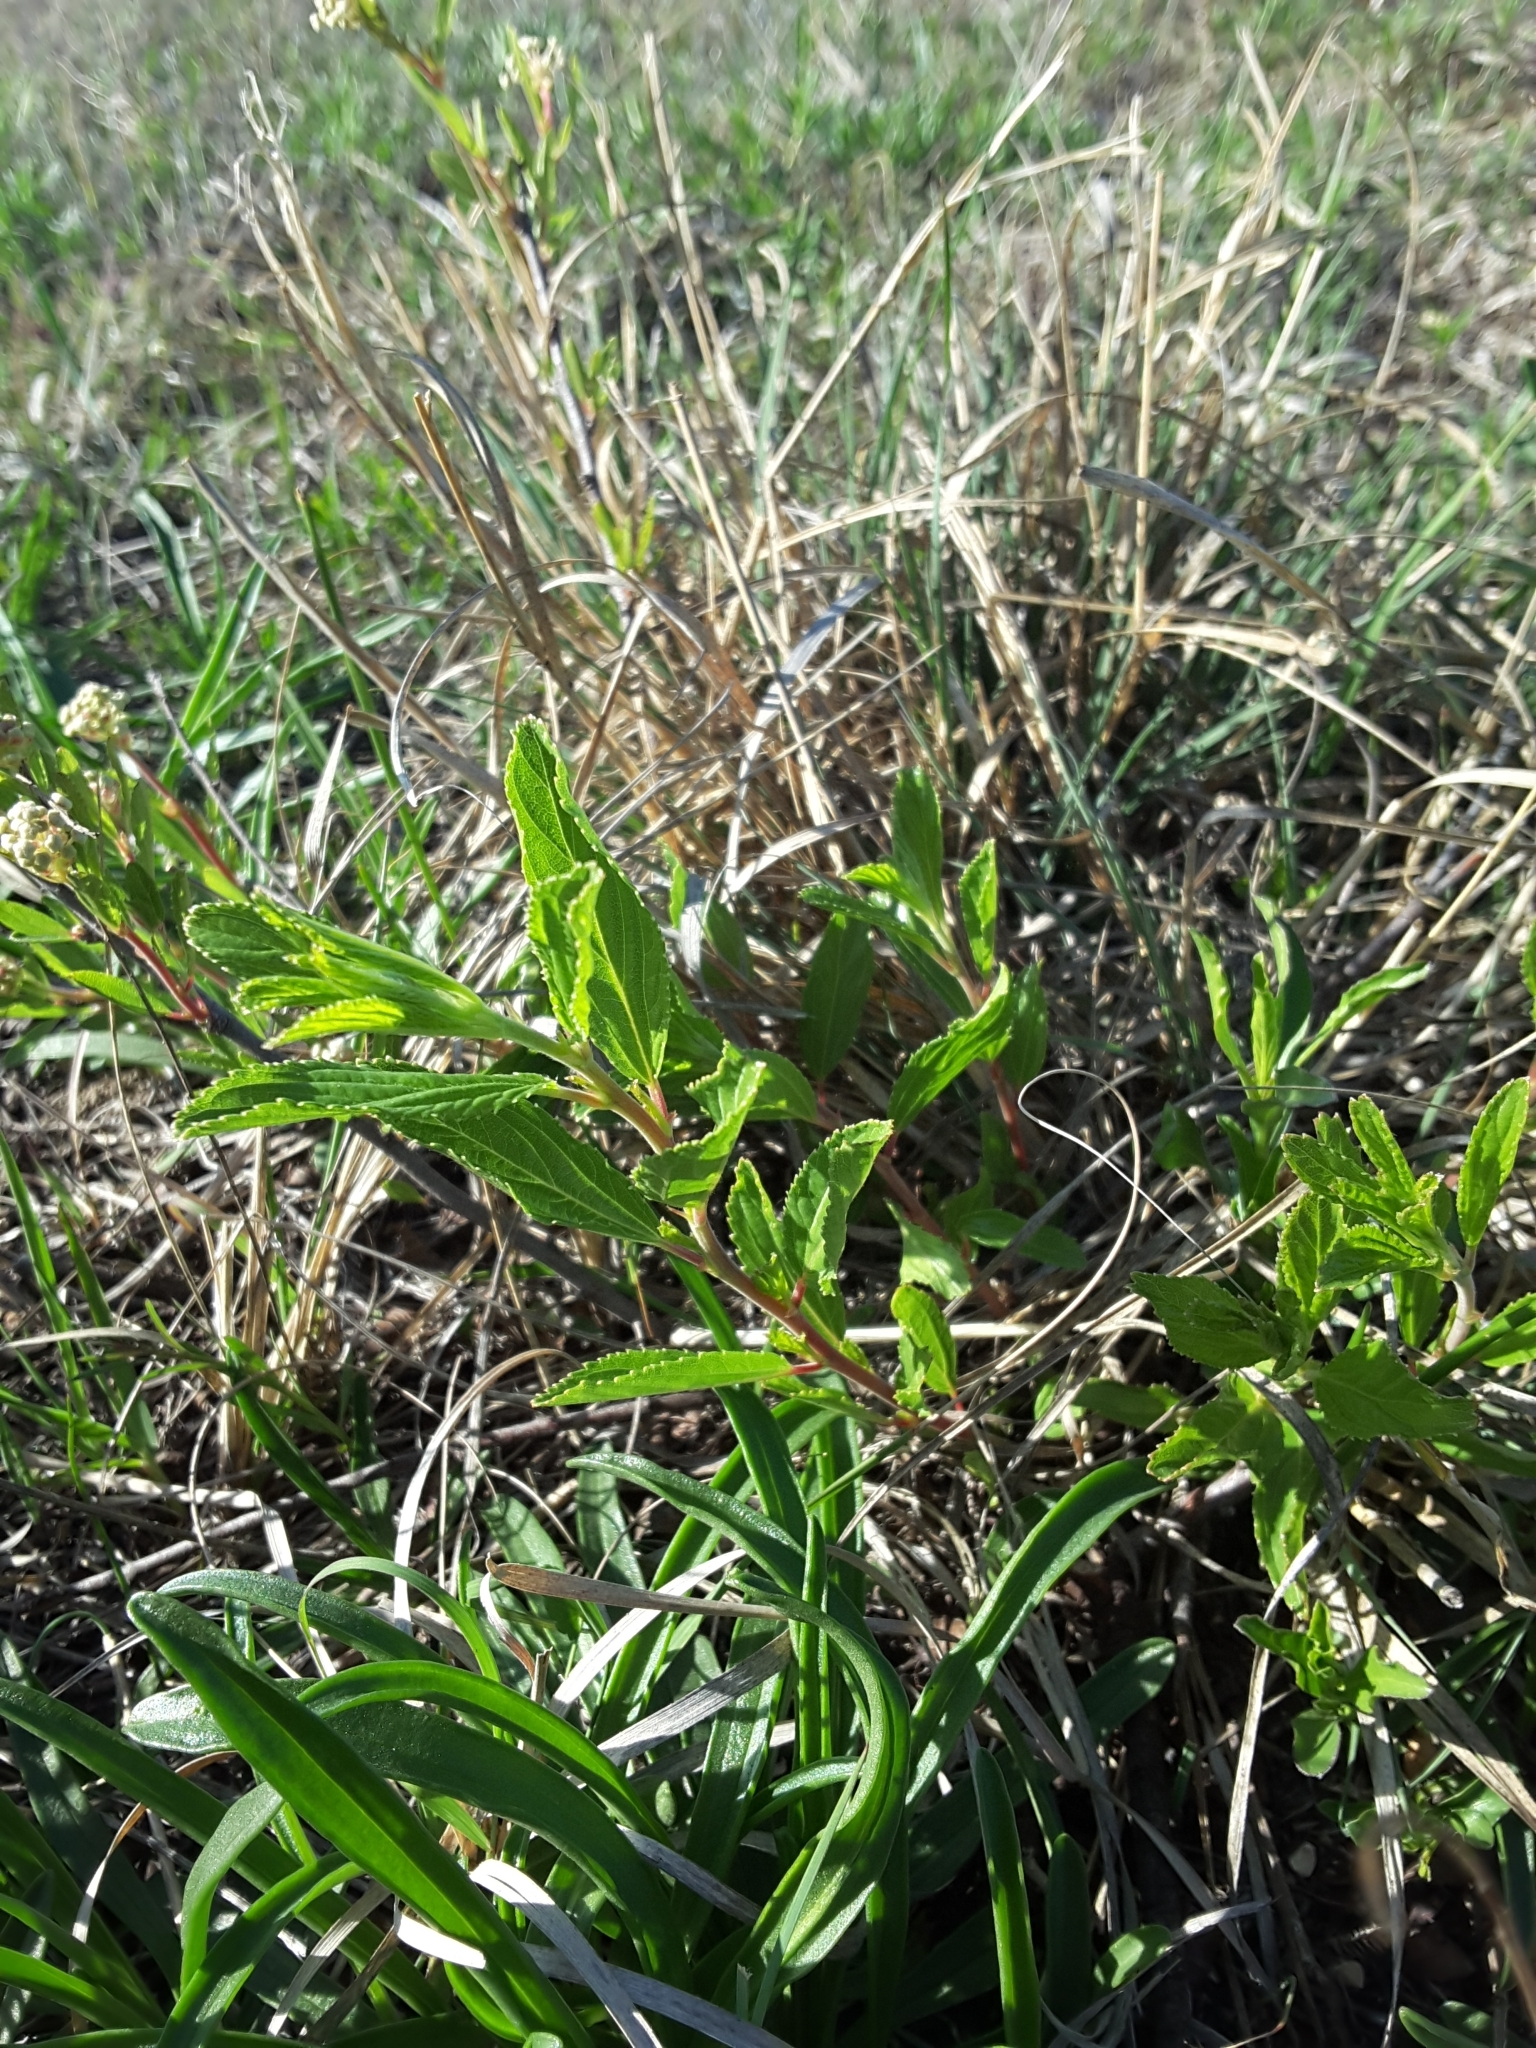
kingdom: Plantae
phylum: Tracheophyta
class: Magnoliopsida
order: Rosales
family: Rhamnaceae
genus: Ceanothus
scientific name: Ceanothus herbaceus
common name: Inland ceanothus
